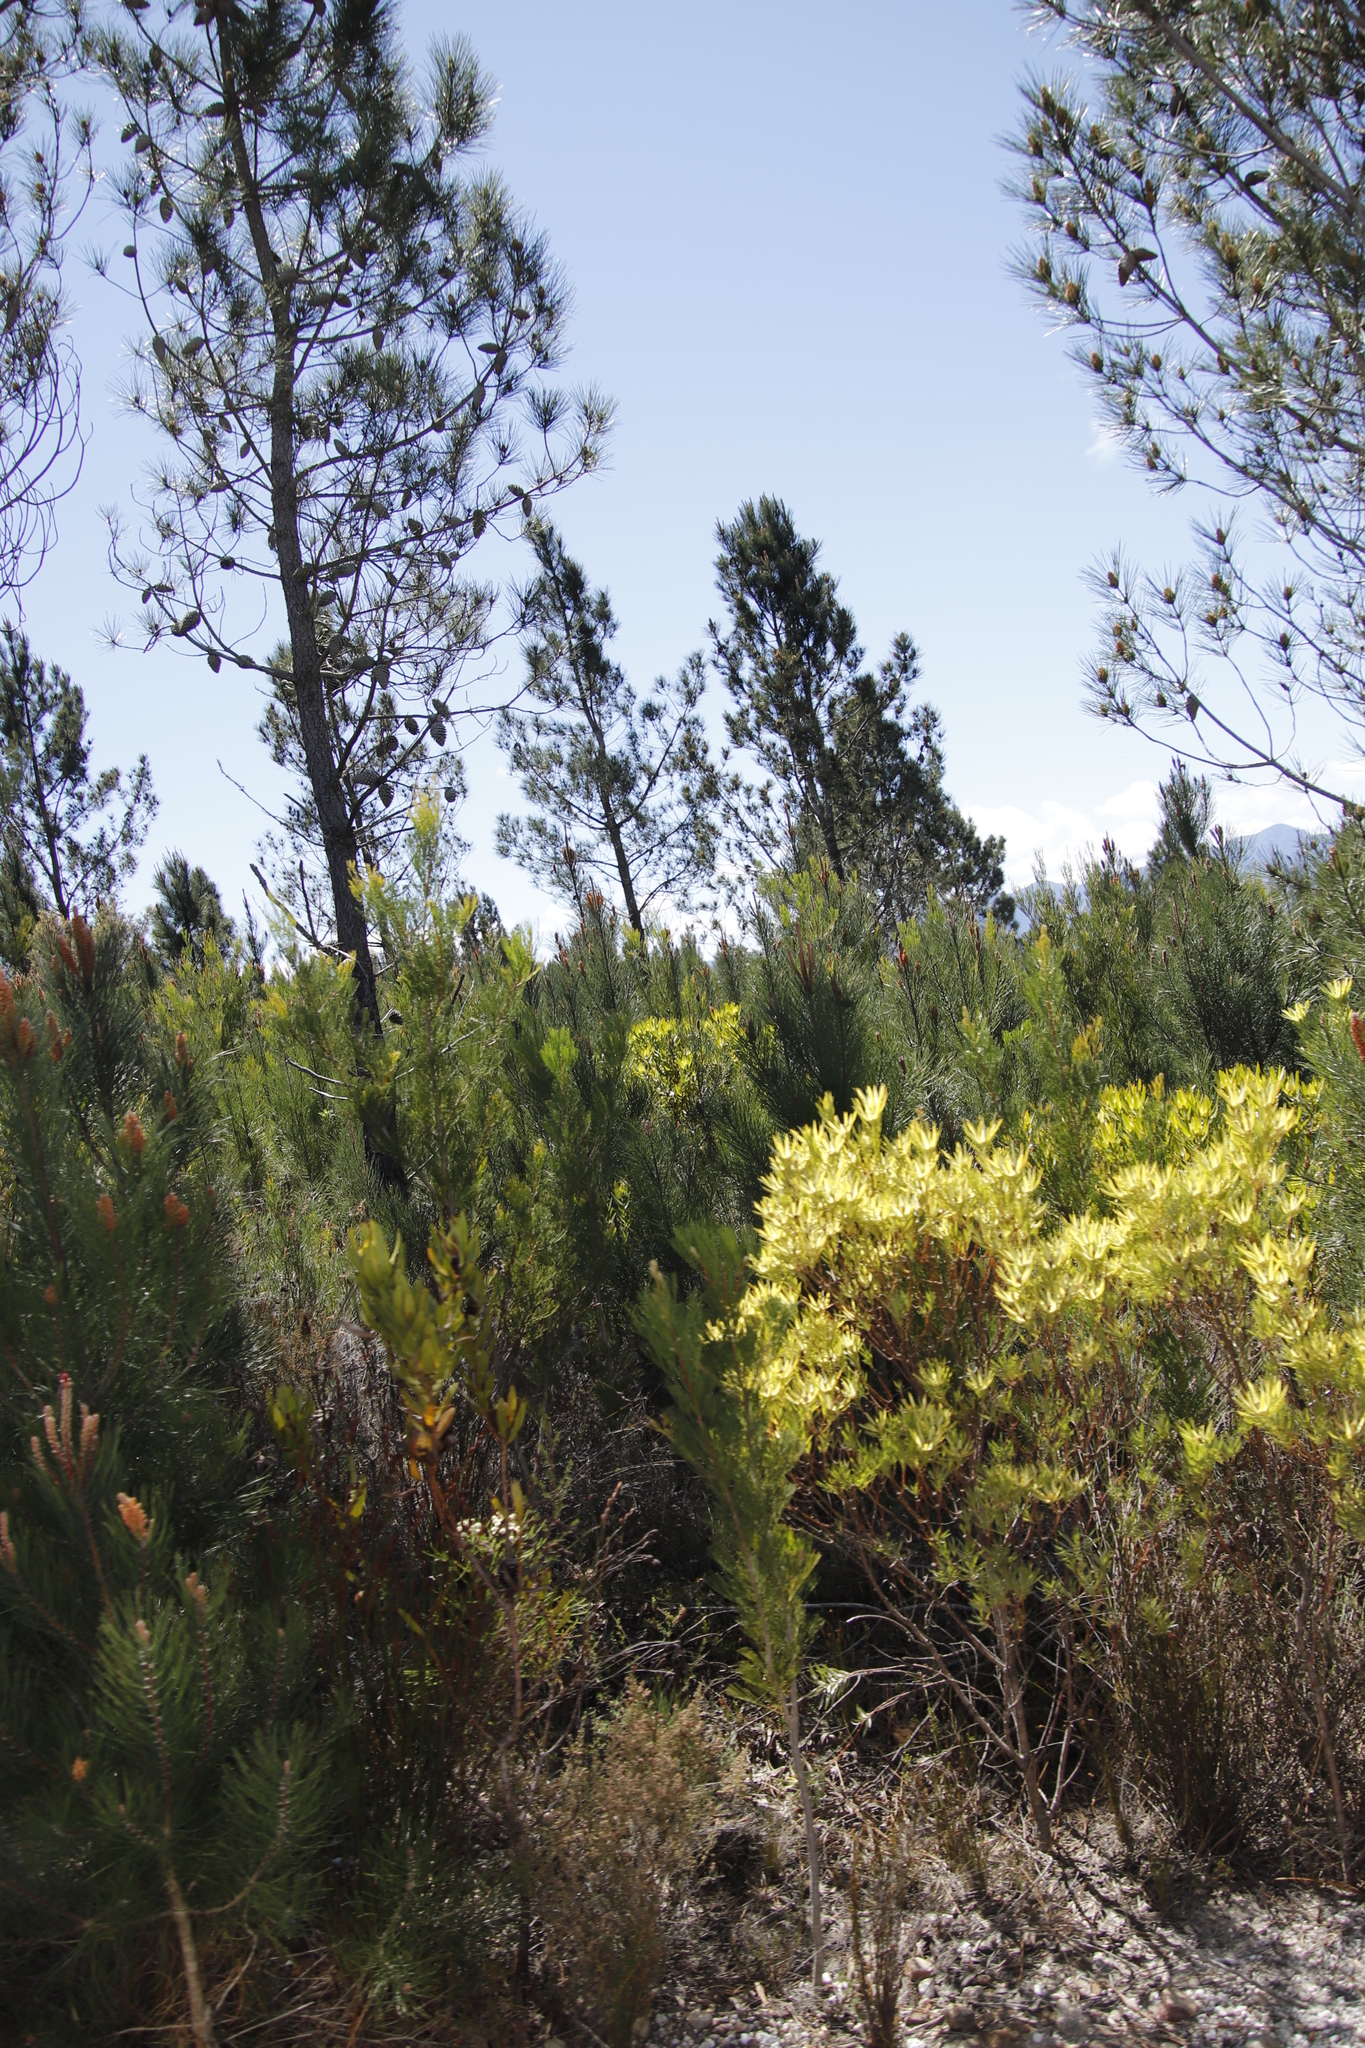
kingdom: Plantae
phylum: Tracheophyta
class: Magnoliopsida
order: Proteales
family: Proteaceae
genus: Hakea
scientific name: Hakea drupacea
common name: Sweet hakea
